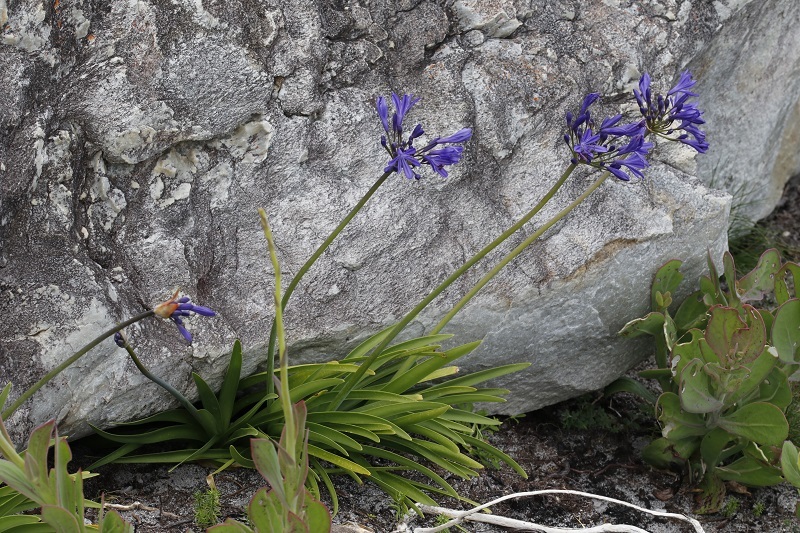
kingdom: Plantae
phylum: Tracheophyta
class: Liliopsida
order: Asparagales
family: Amaryllidaceae
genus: Agapanthus
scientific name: Agapanthus africanus
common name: Lily-of-the-nile
